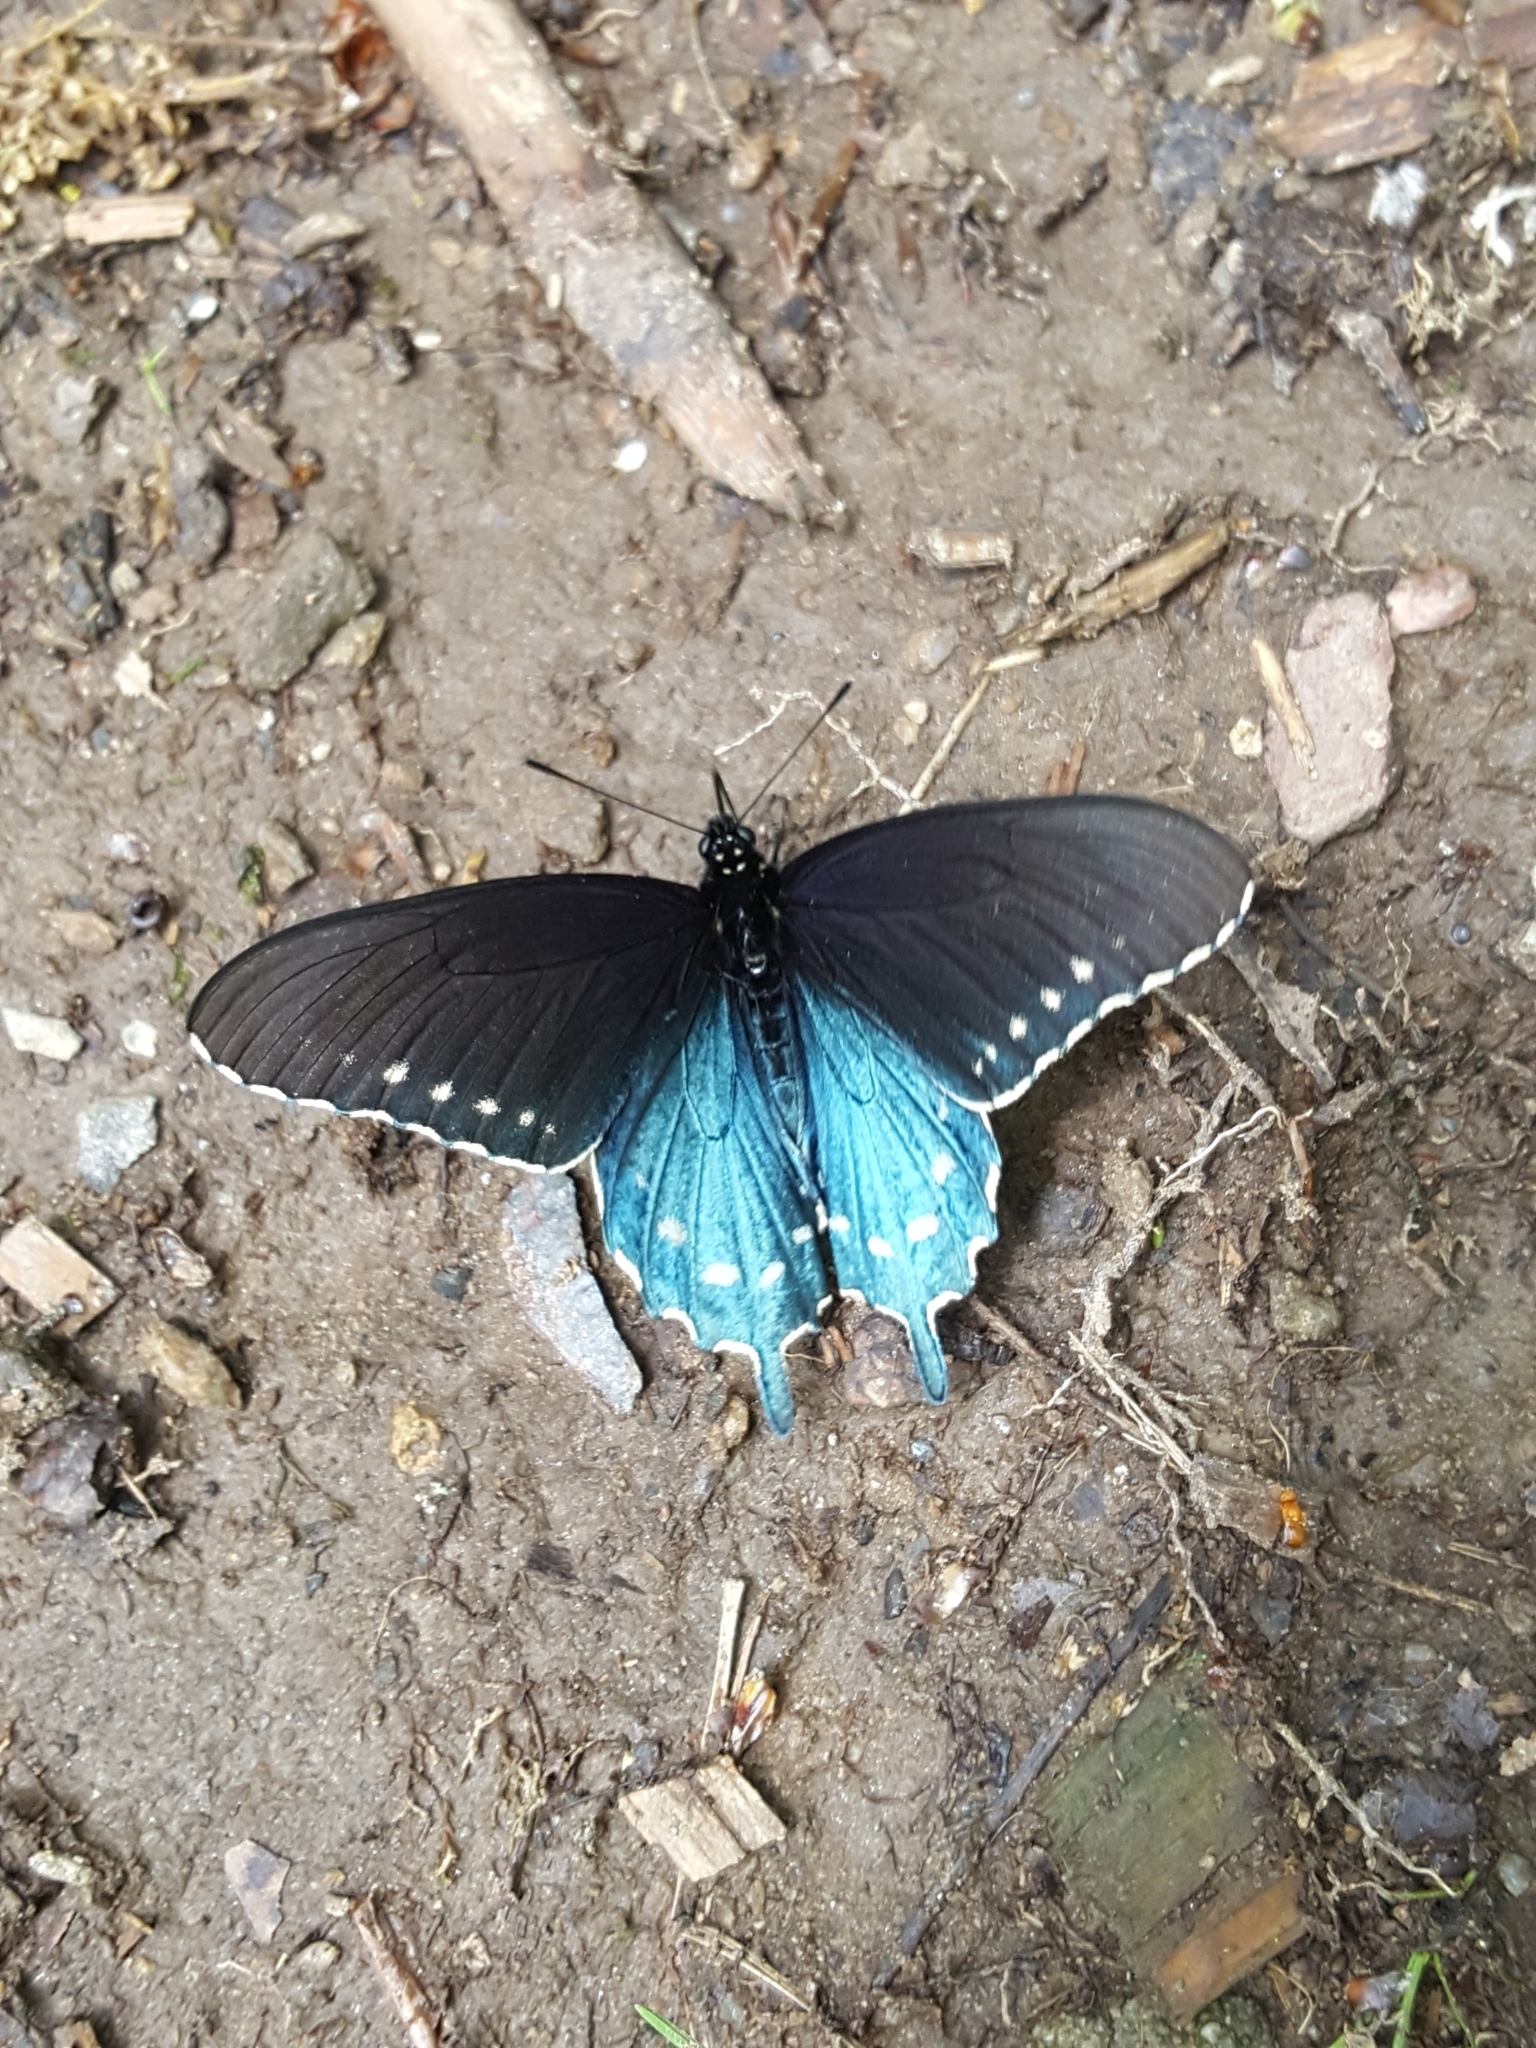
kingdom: Animalia
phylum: Arthropoda
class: Insecta
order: Lepidoptera
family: Papilionidae
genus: Battus
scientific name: Battus philenor
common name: Pipevine swallowtail
